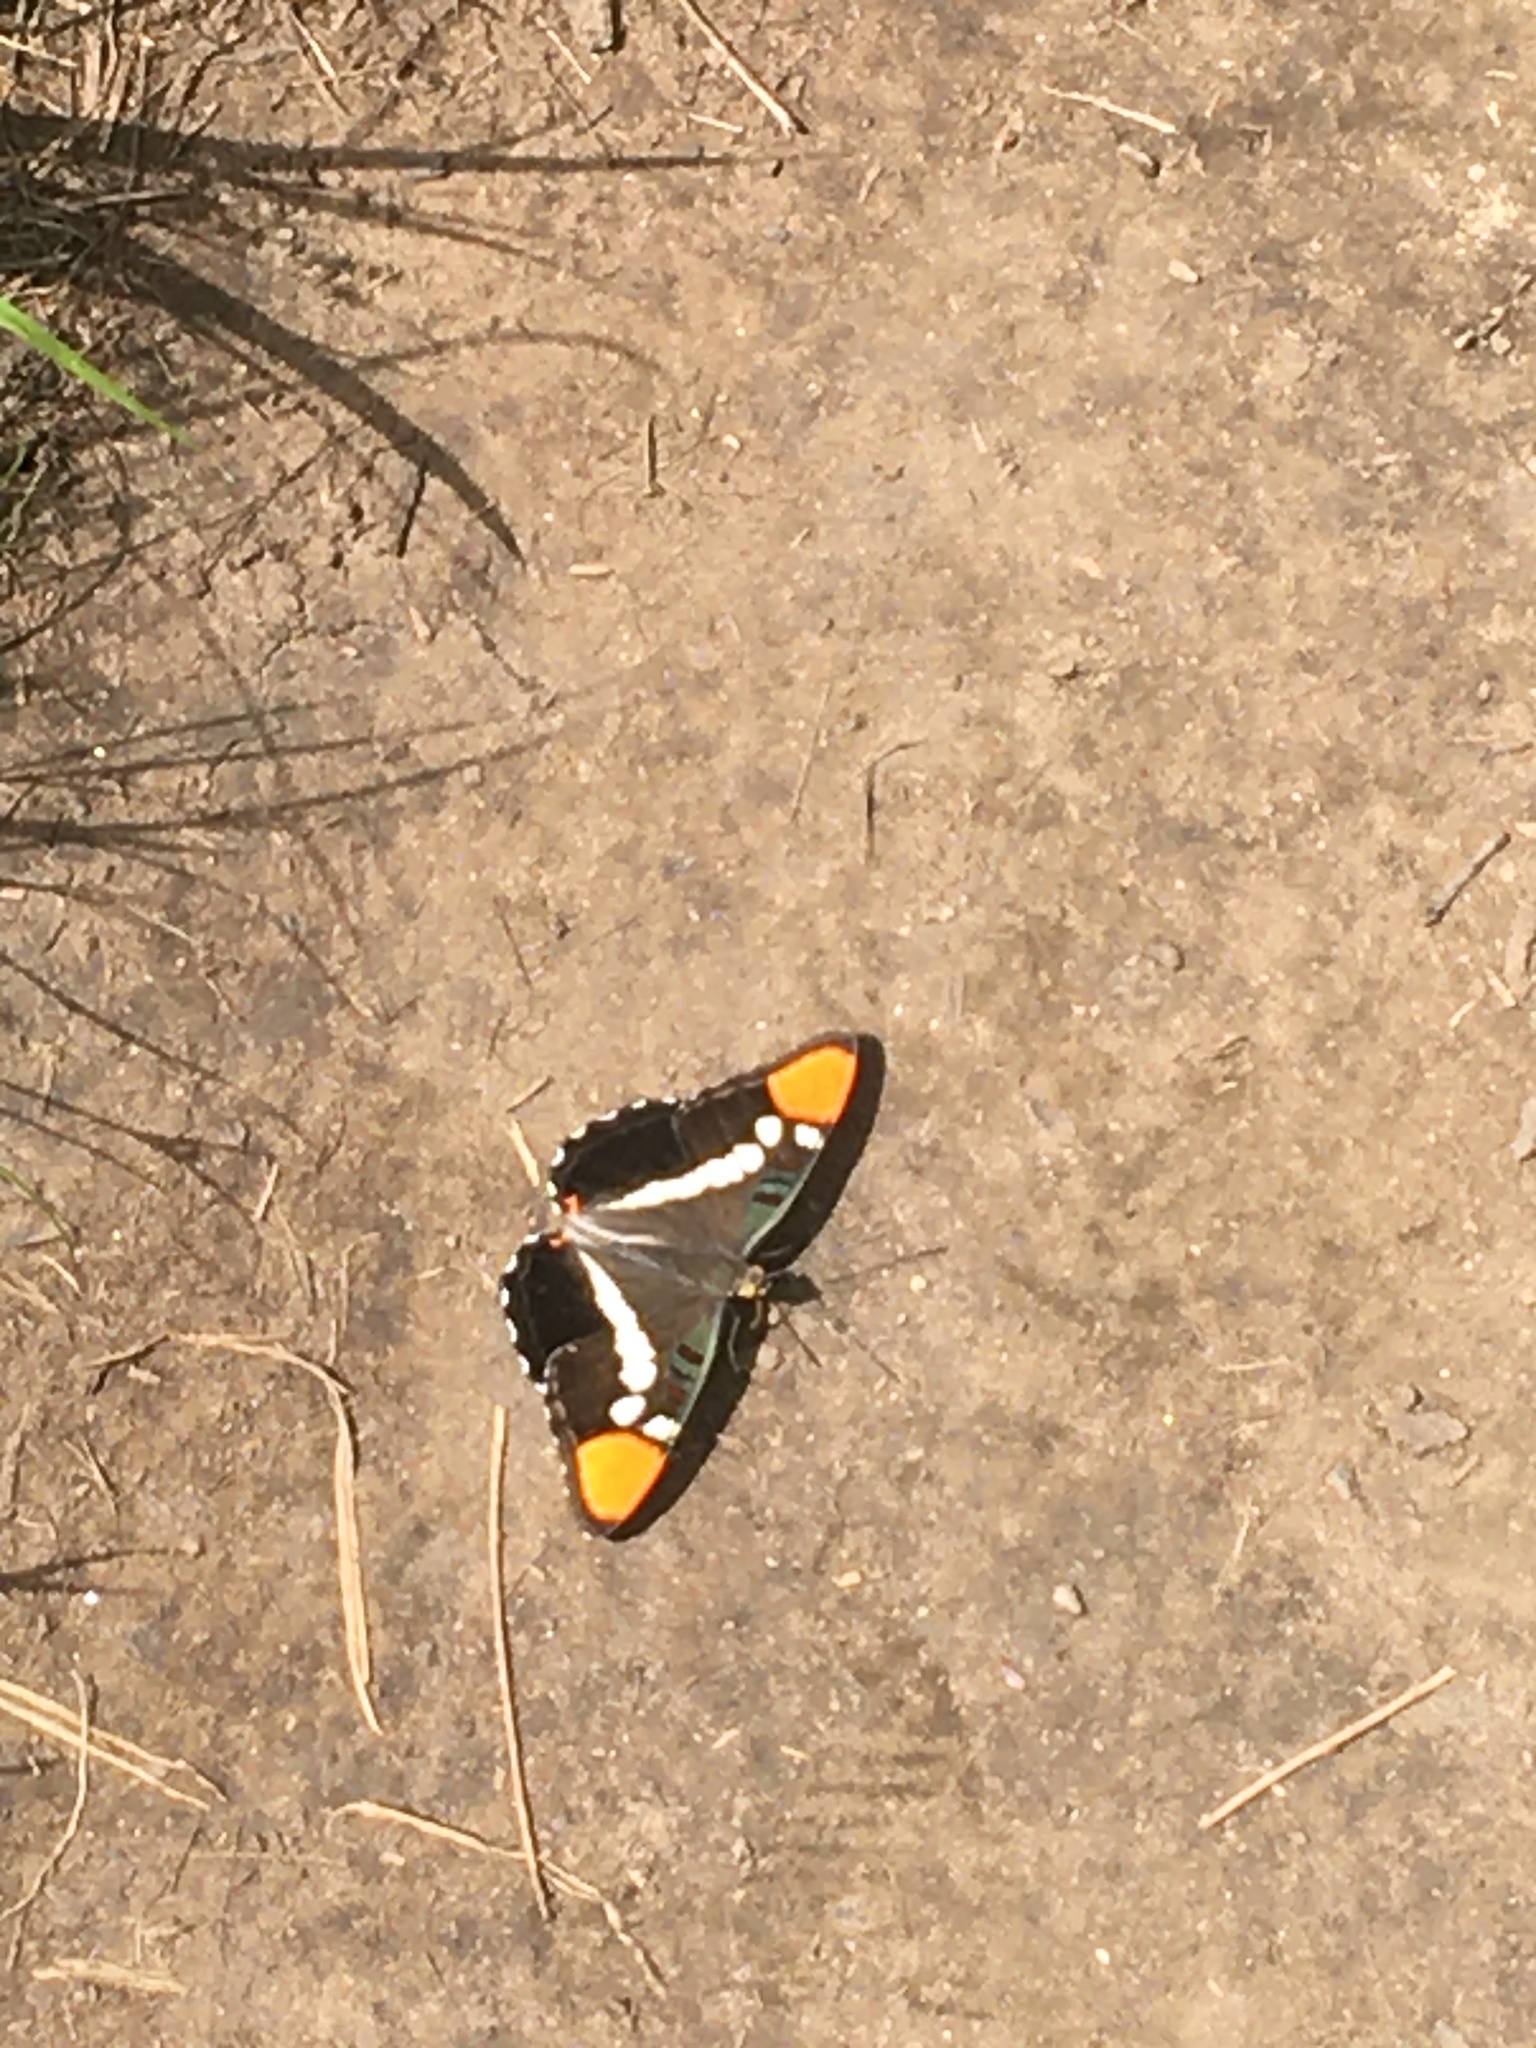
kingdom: Animalia
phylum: Arthropoda
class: Insecta
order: Lepidoptera
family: Nymphalidae
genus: Limenitis
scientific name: Limenitis bredowii
